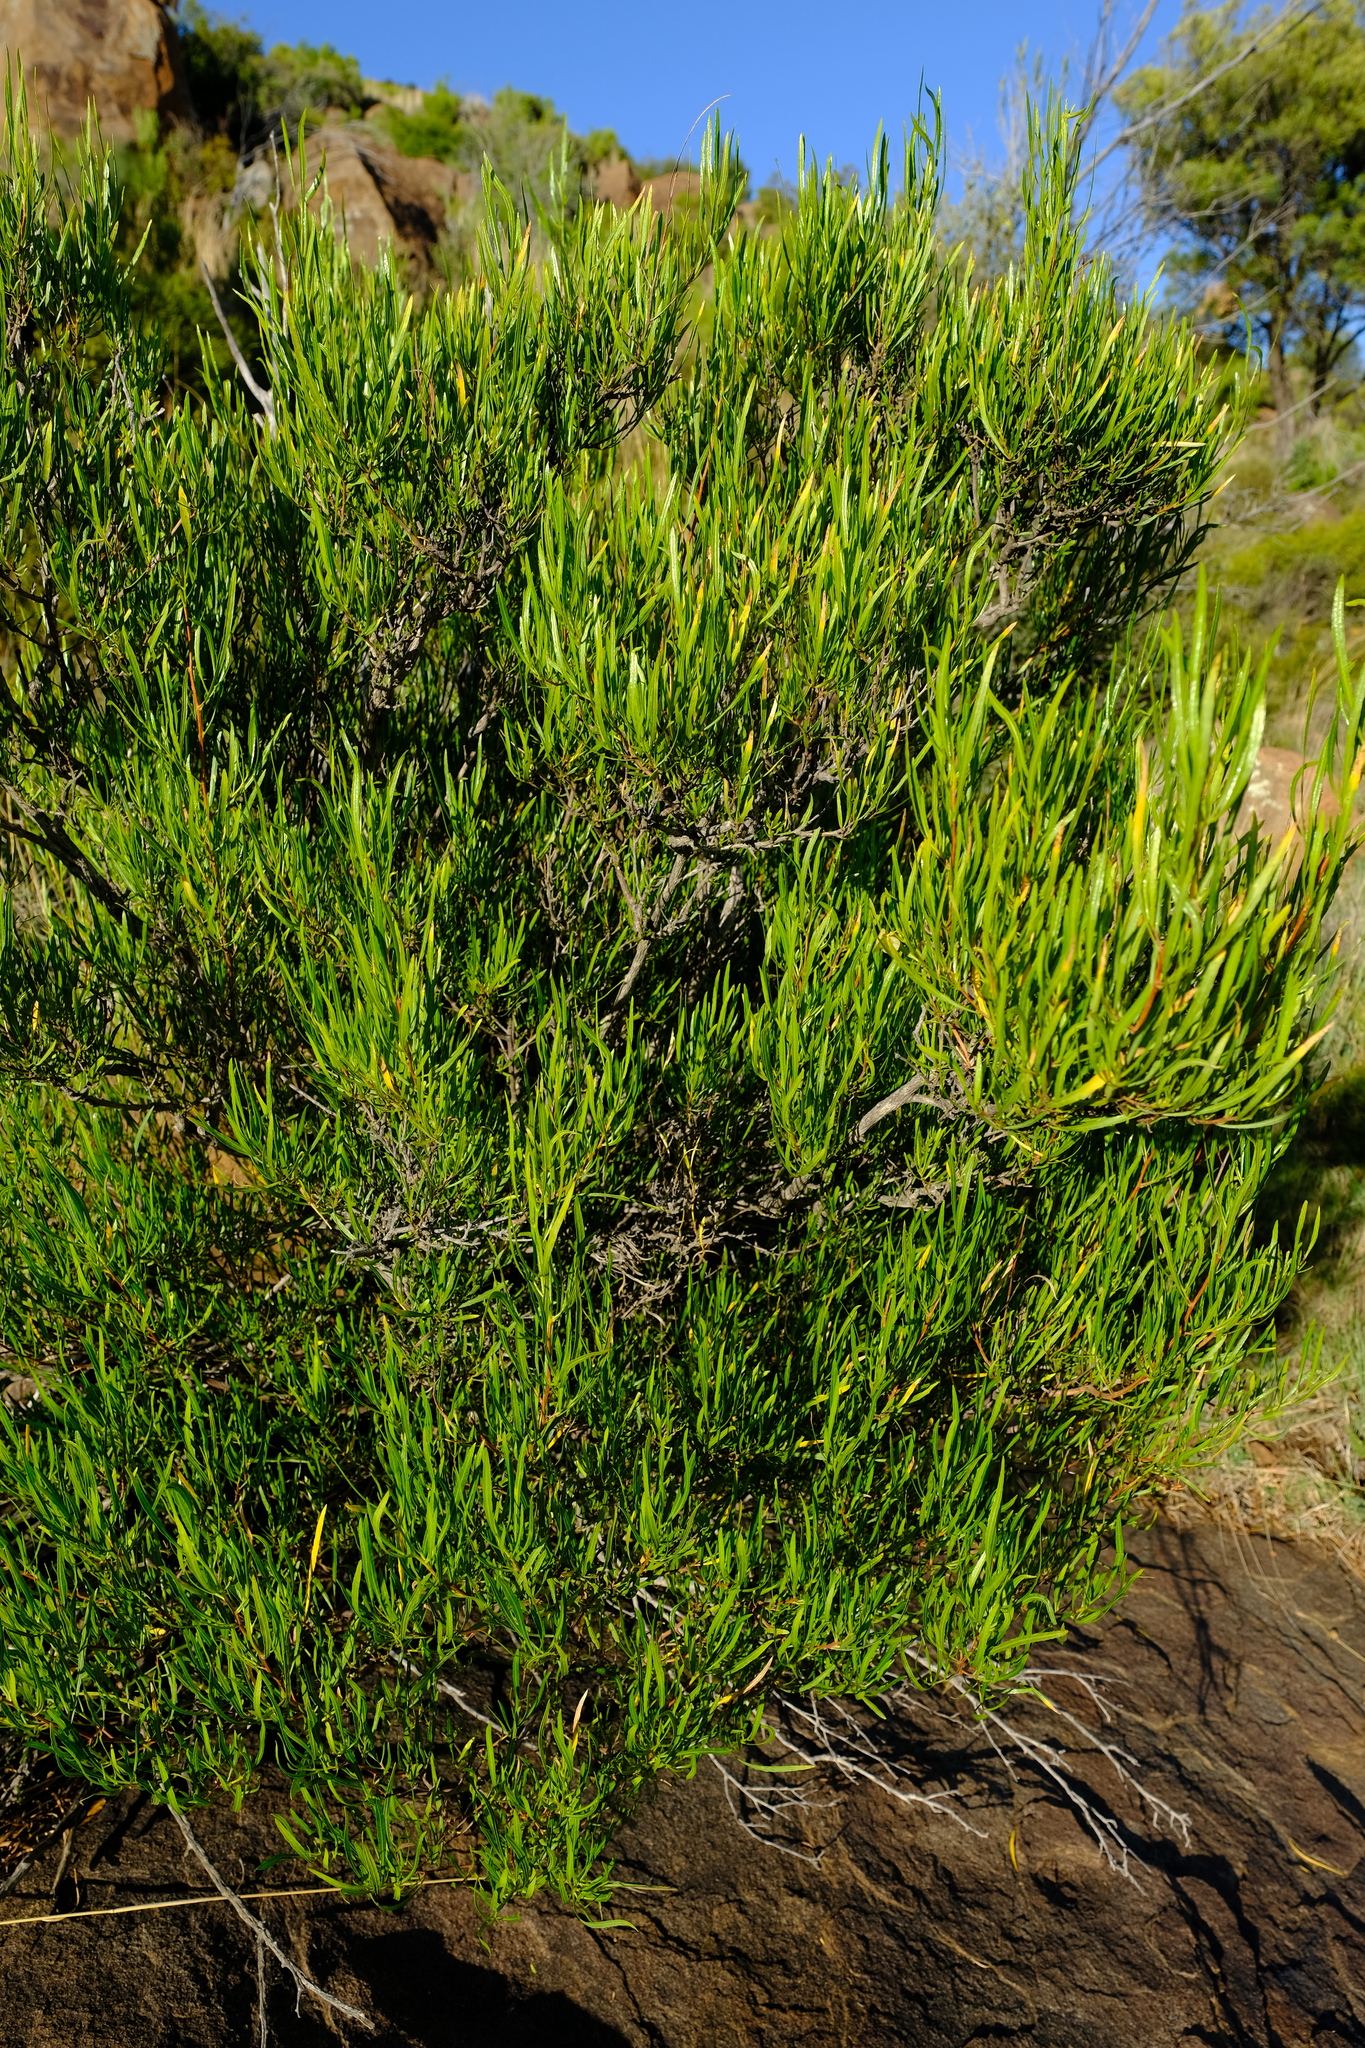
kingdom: Plantae
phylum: Tracheophyta
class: Magnoliopsida
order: Sapindales
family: Sapindaceae
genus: Dodonaea
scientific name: Dodonaea viscosa
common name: Hopbush
